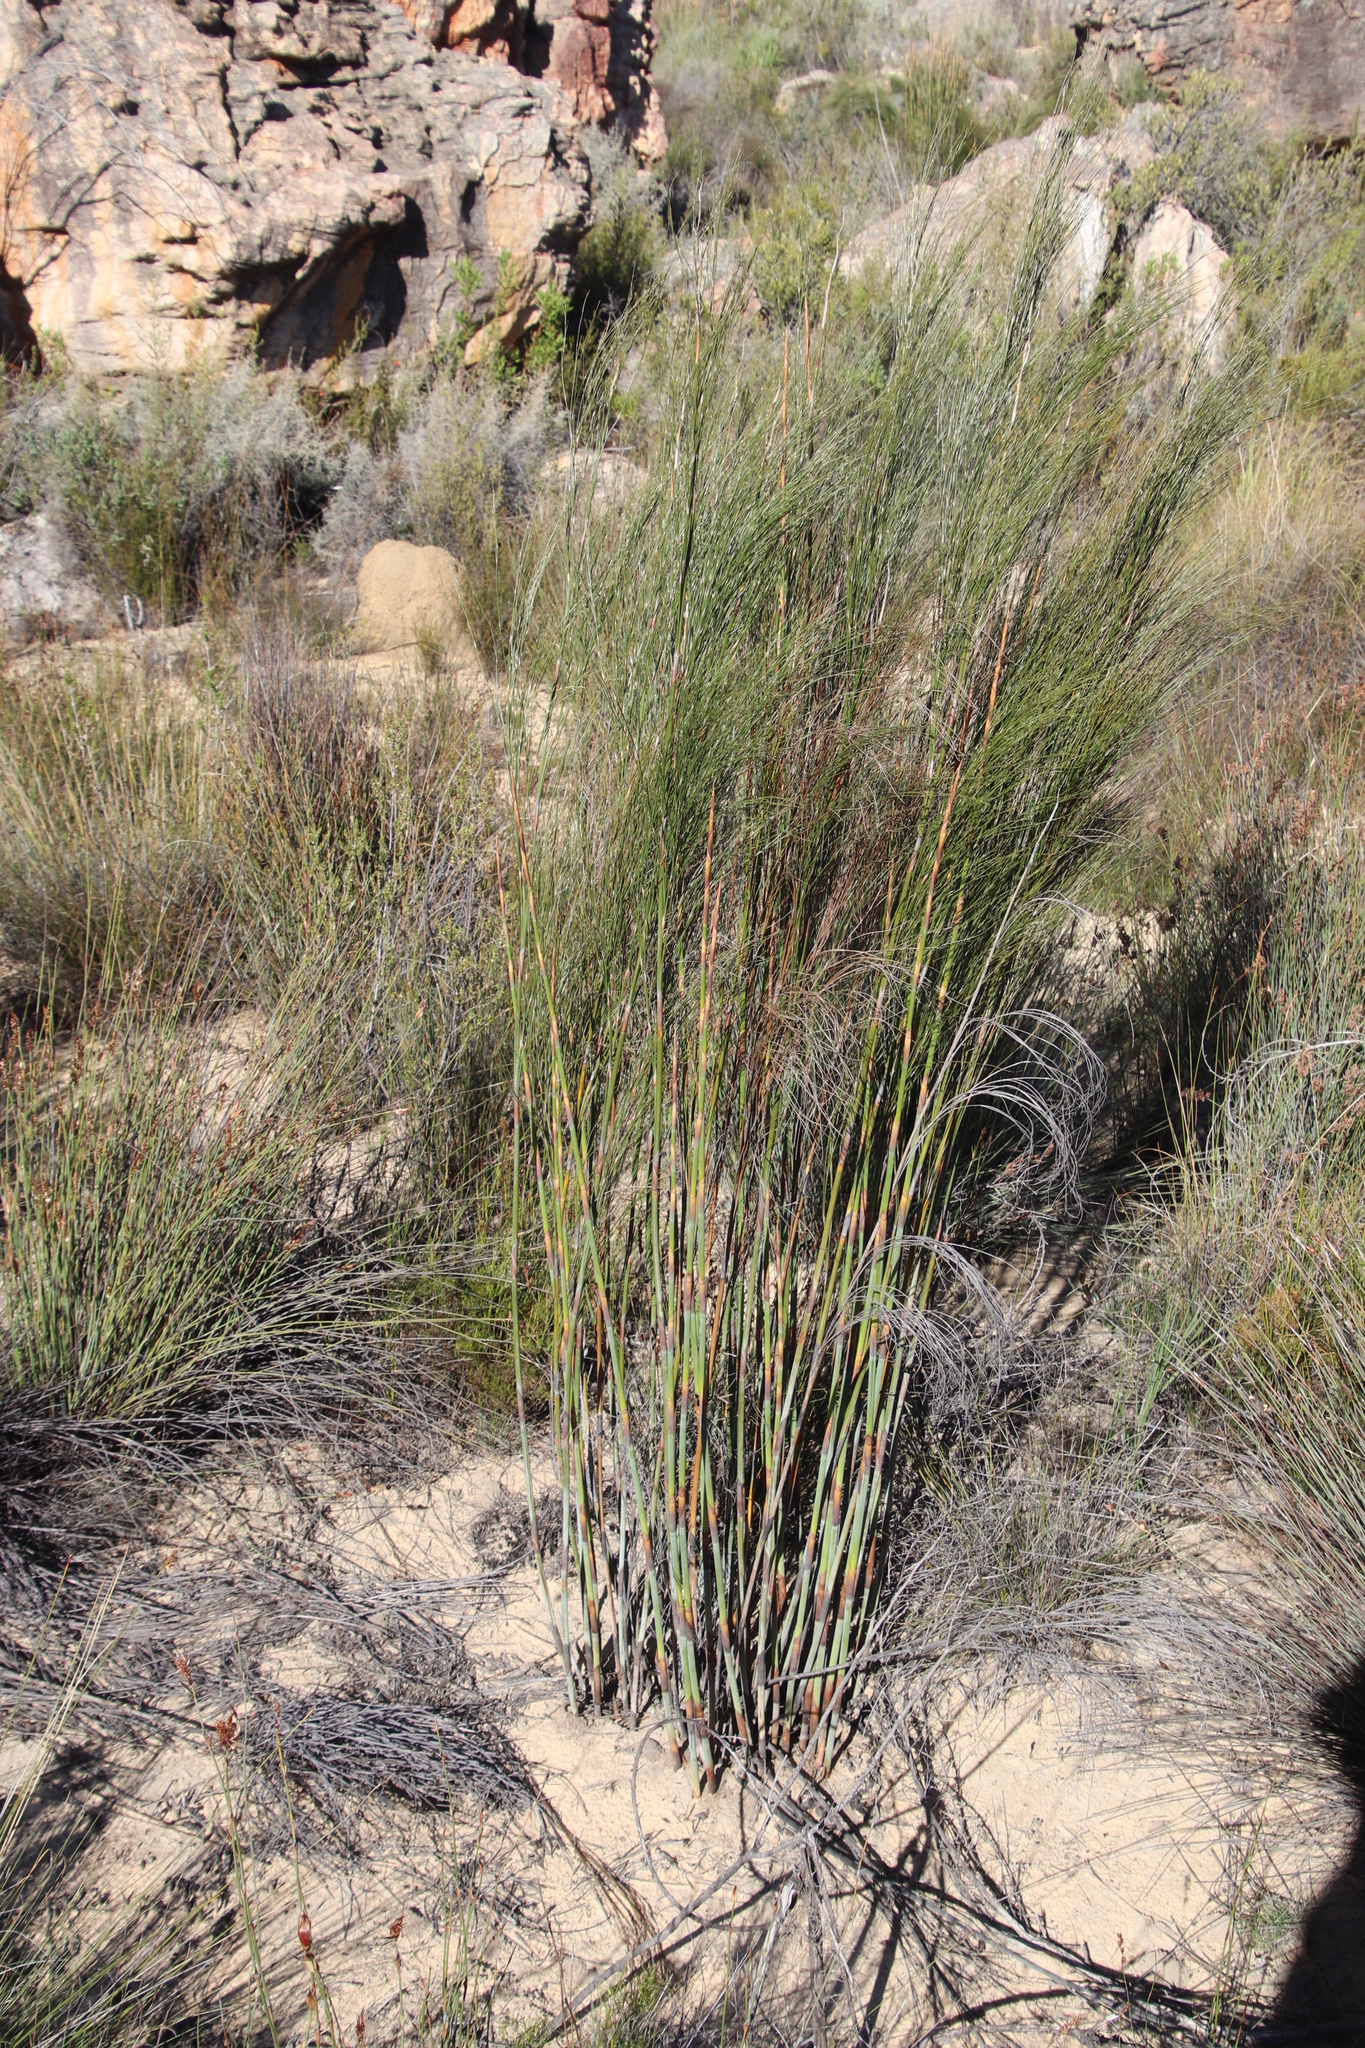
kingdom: Plantae
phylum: Tracheophyta
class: Liliopsida
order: Poales
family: Restionaceae
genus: Cannomois
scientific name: Cannomois robusta
